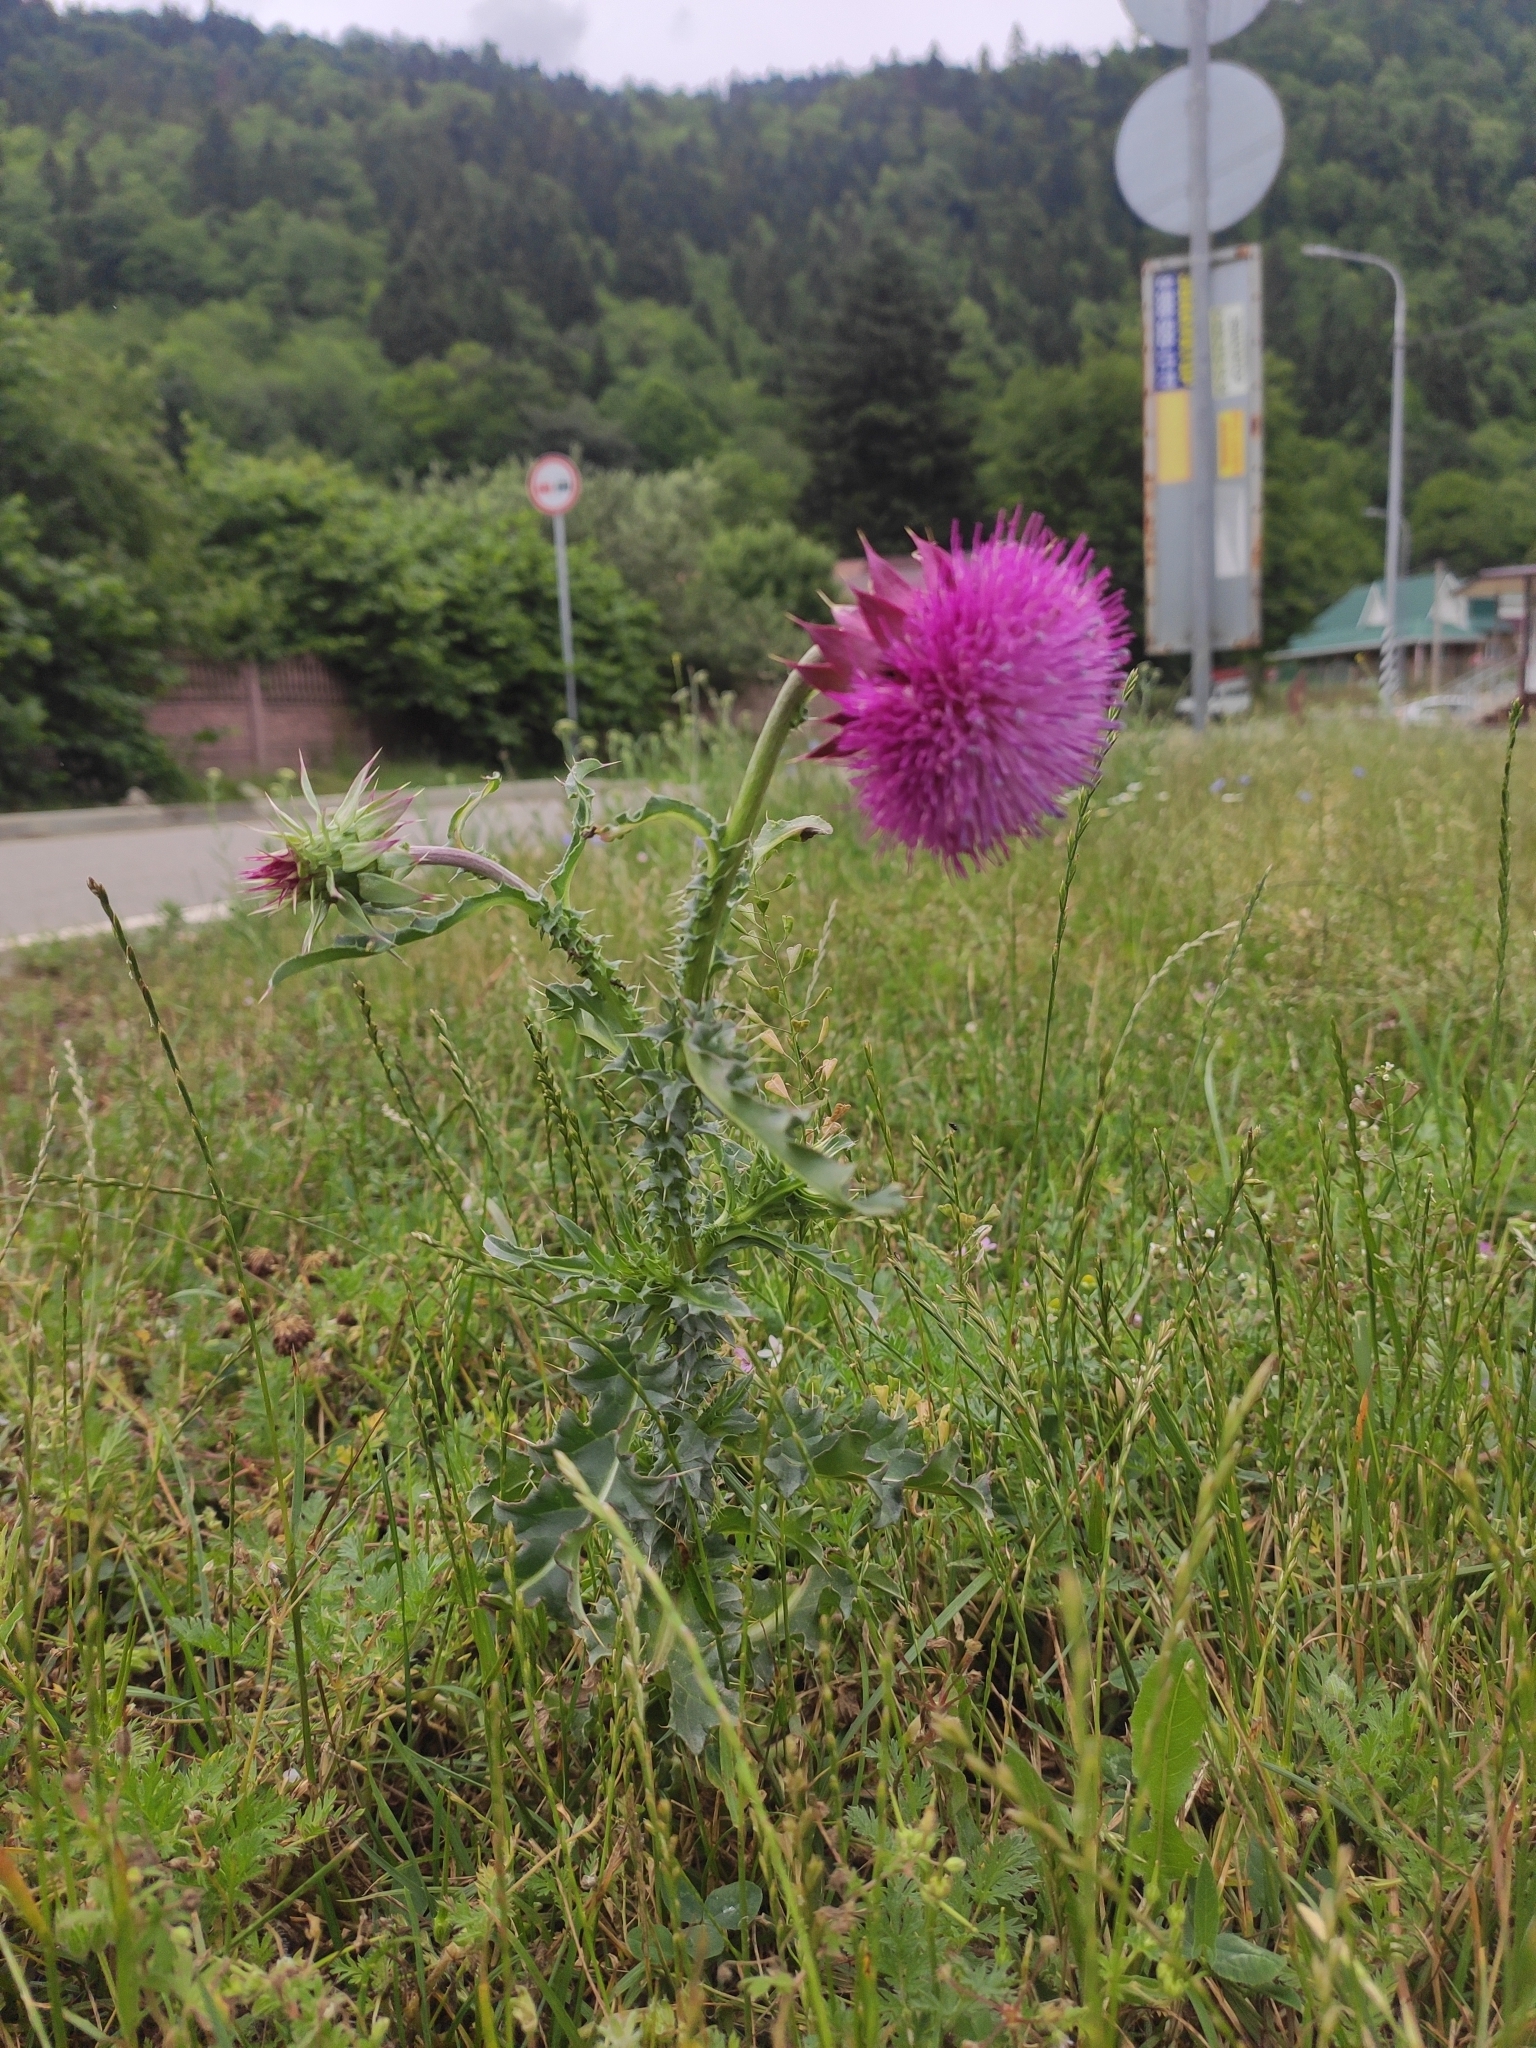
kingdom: Plantae
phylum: Tracheophyta
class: Magnoliopsida
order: Asterales
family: Asteraceae
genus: Carduus
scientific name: Carduus nutans
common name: Musk thistle
